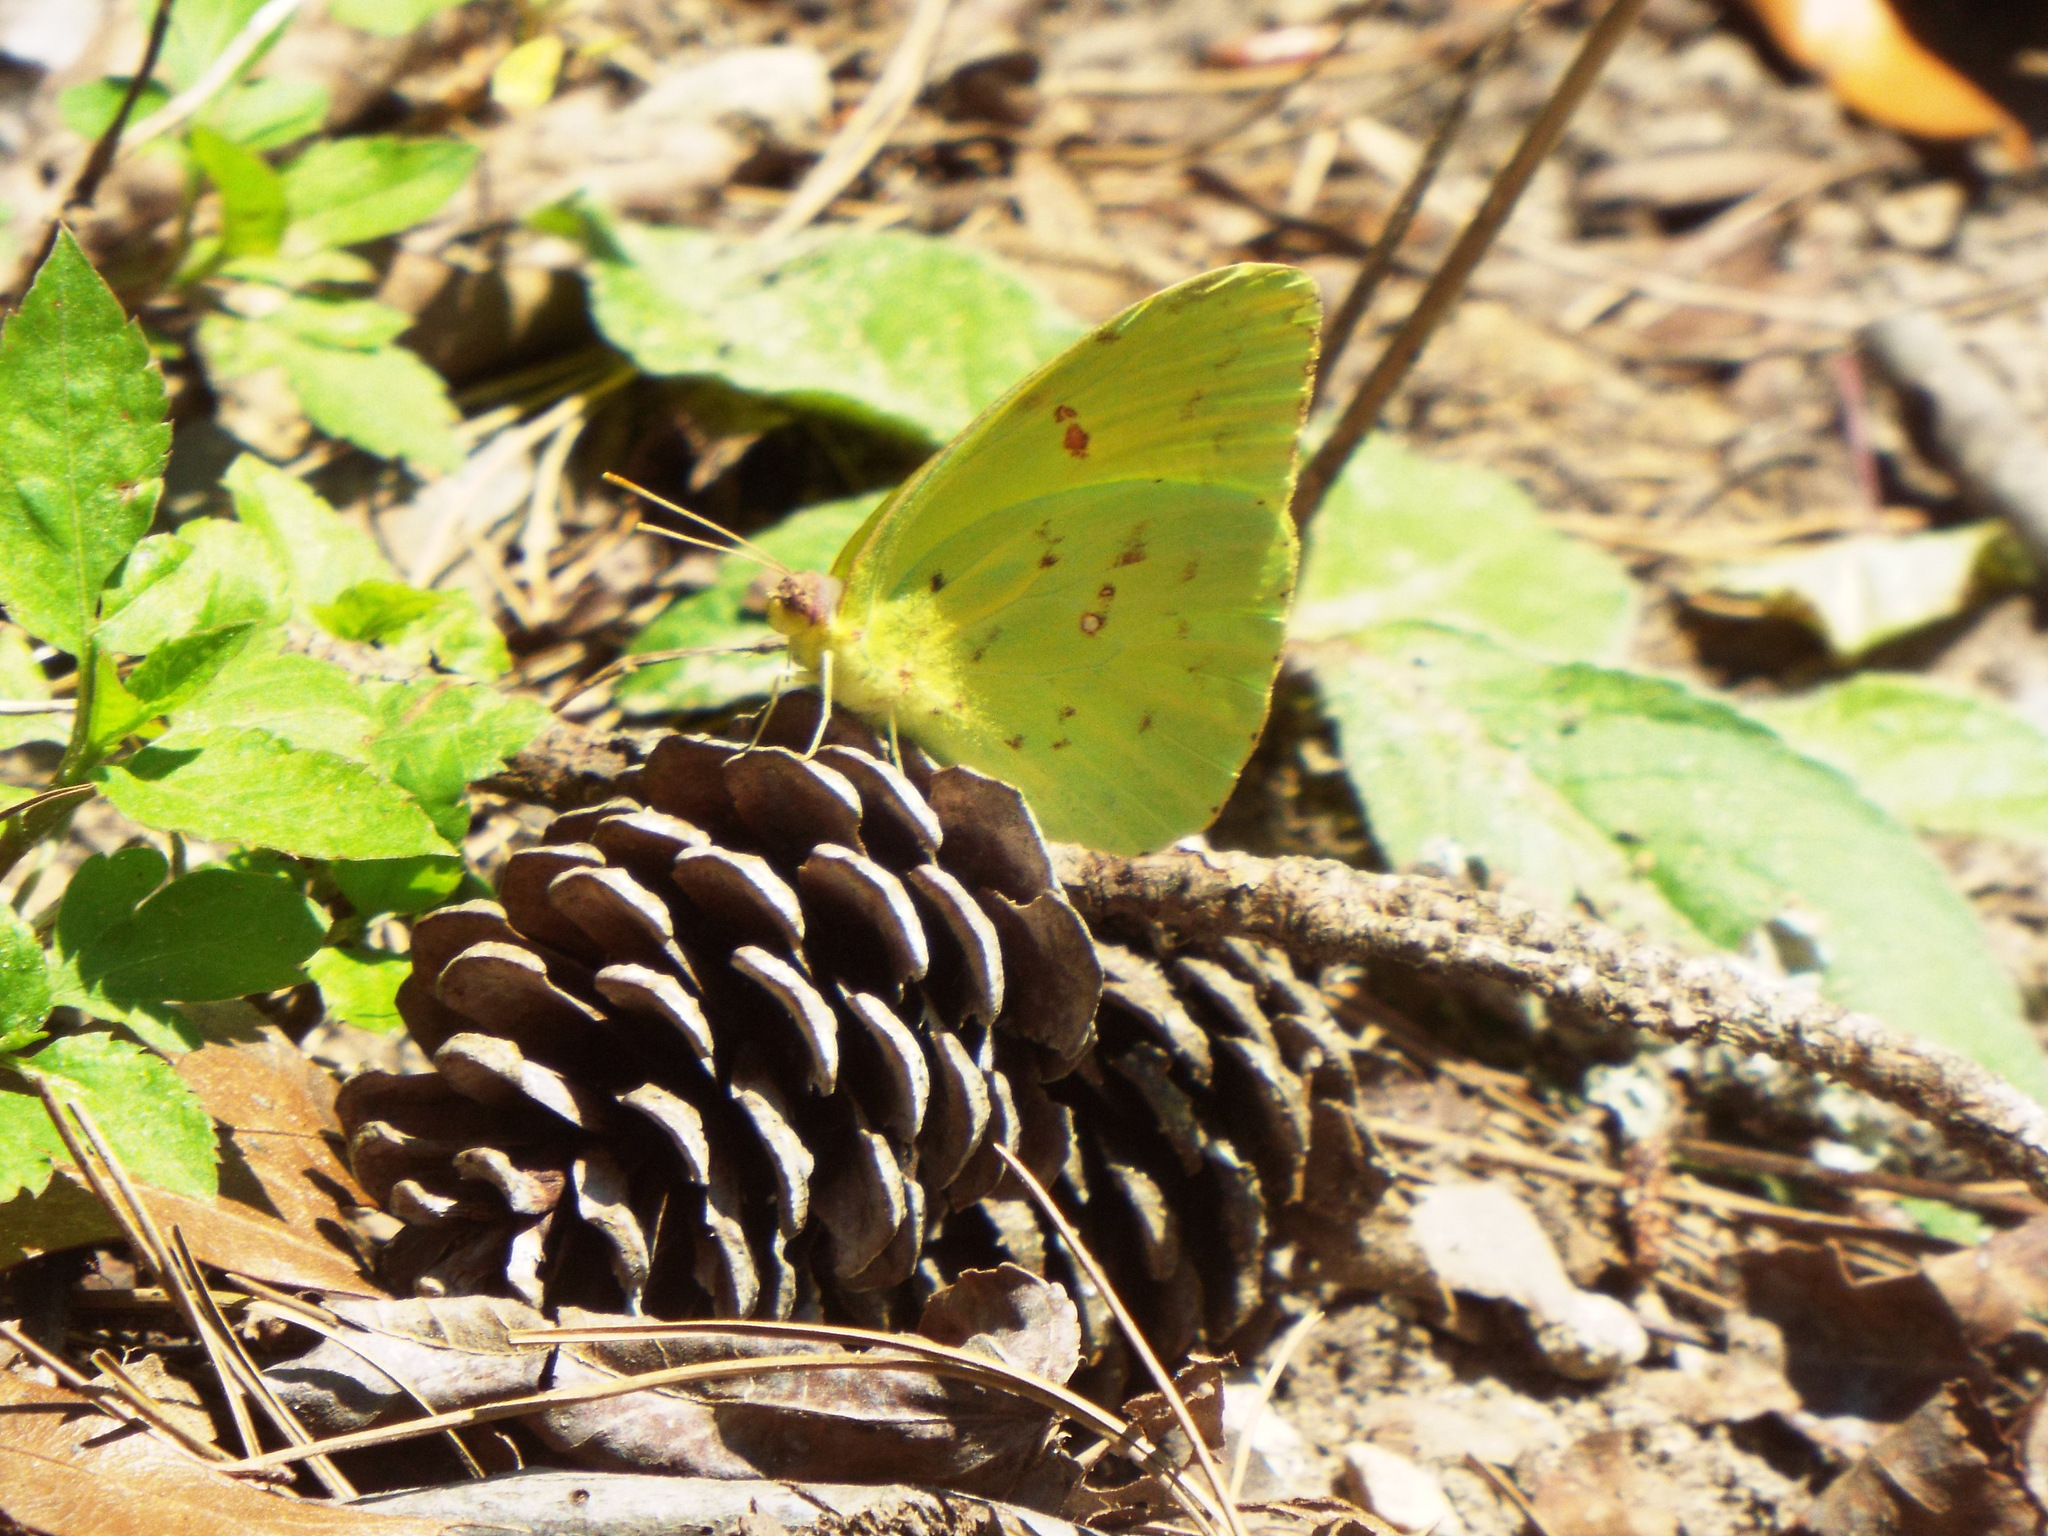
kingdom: Animalia
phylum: Arthropoda
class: Insecta
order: Lepidoptera
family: Pieridae
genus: Phoebis
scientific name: Phoebis sennae
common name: Cloudless sulphur
